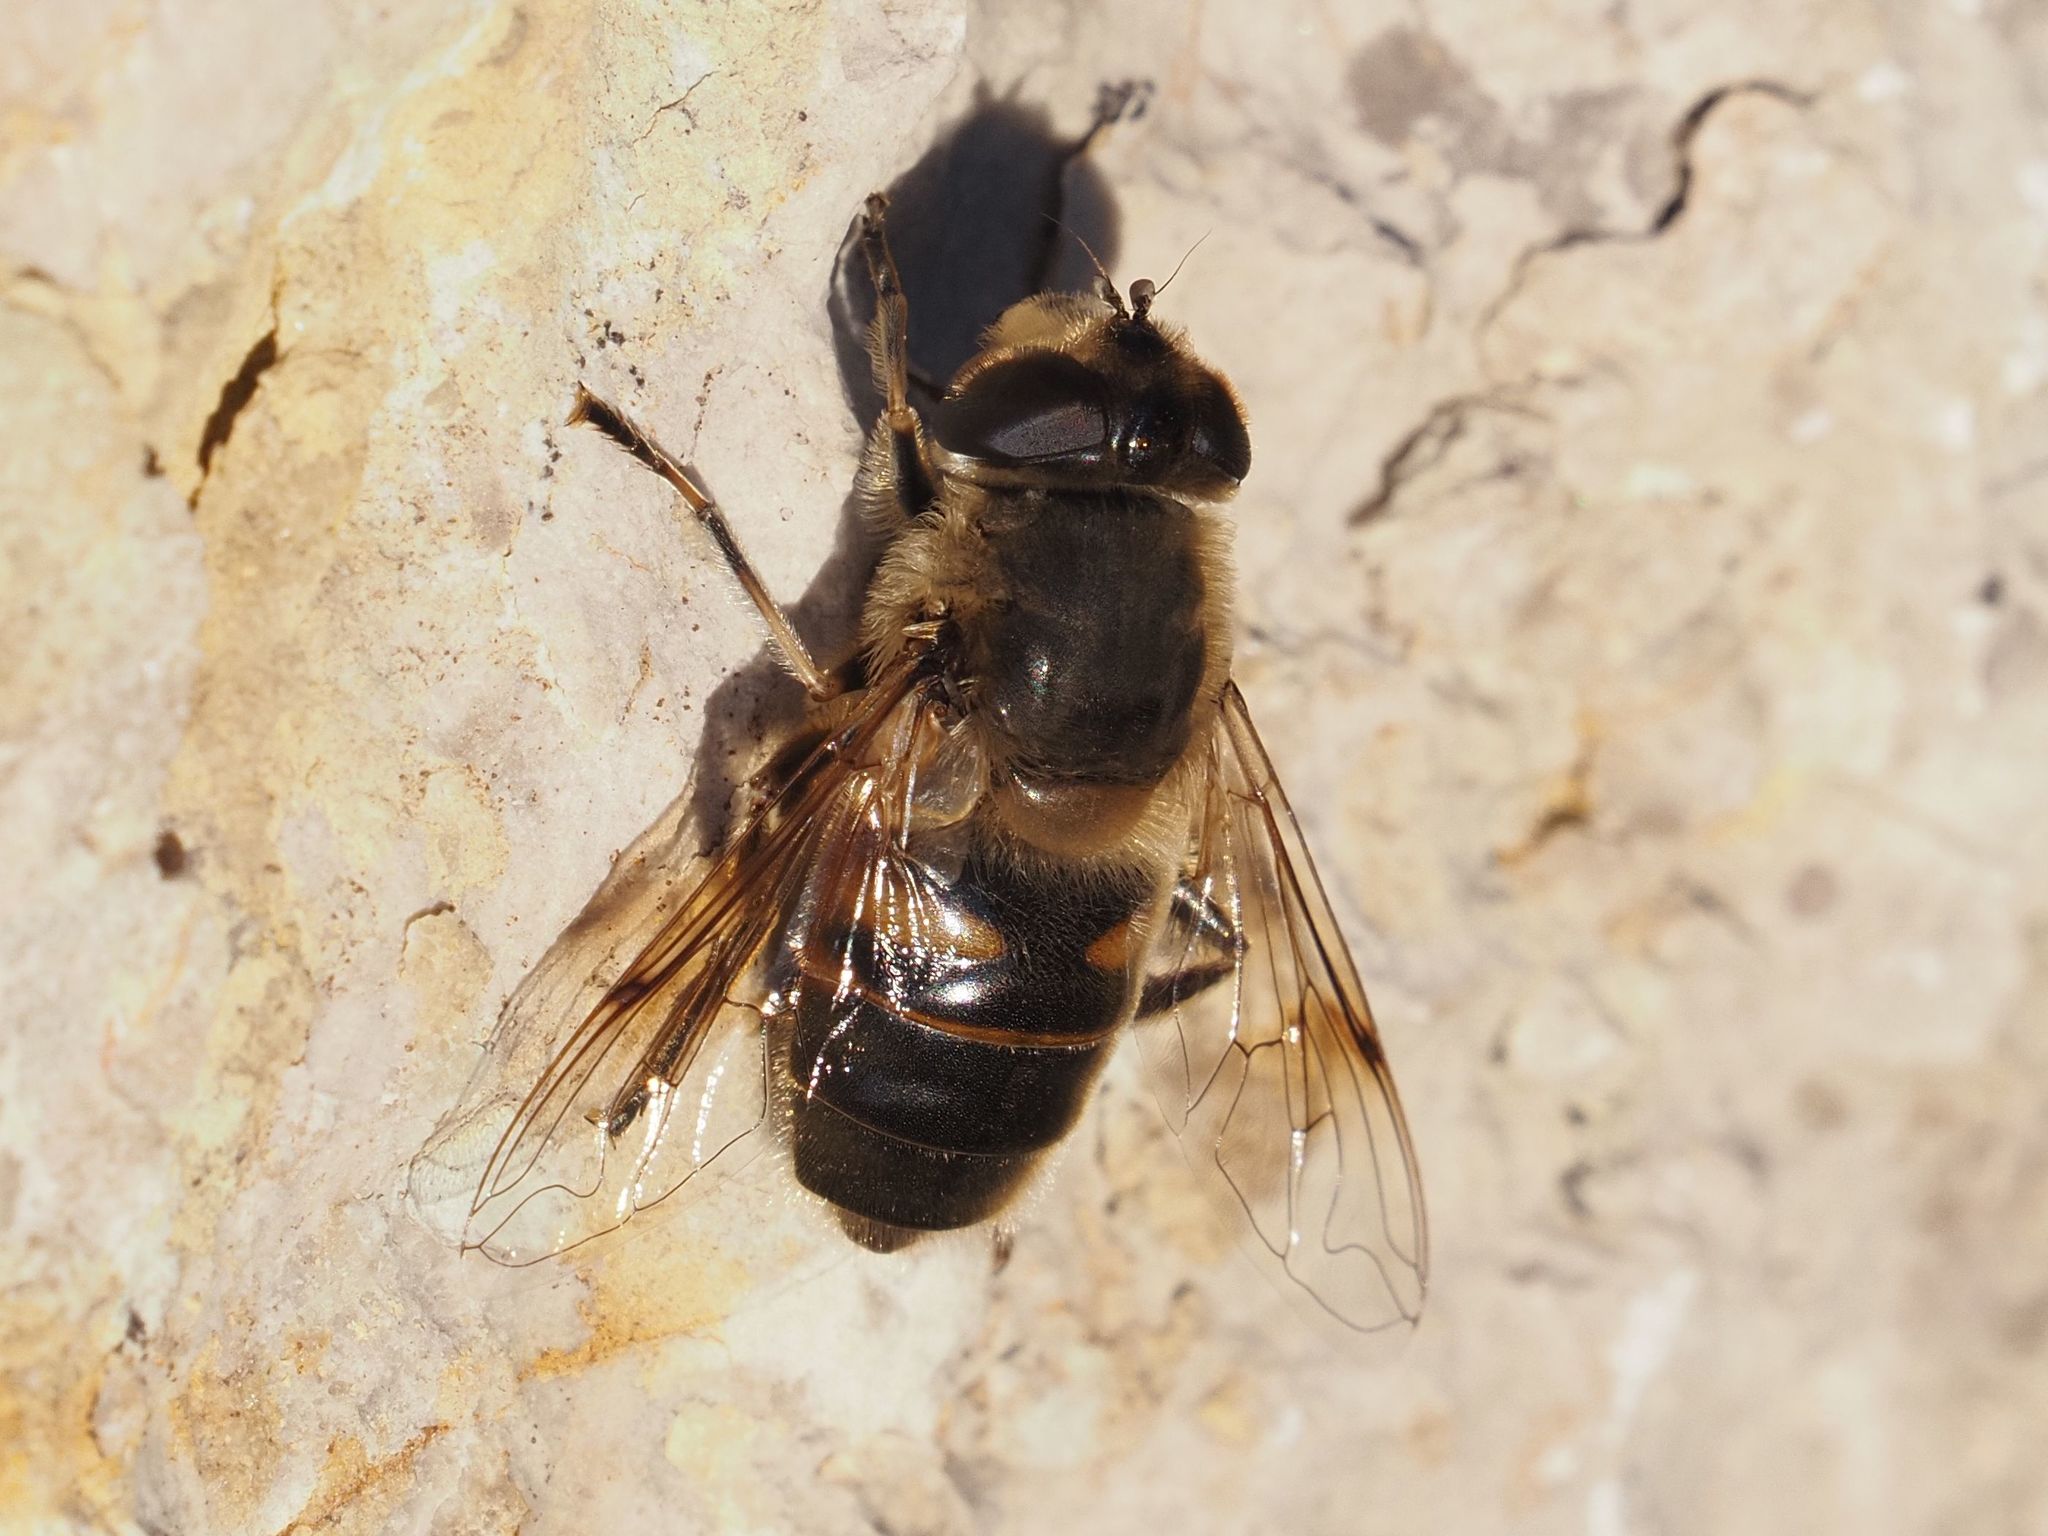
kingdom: Animalia
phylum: Arthropoda
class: Insecta
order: Diptera
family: Syrphidae
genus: Eristalis
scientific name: Eristalis tenax
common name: Drone fly
